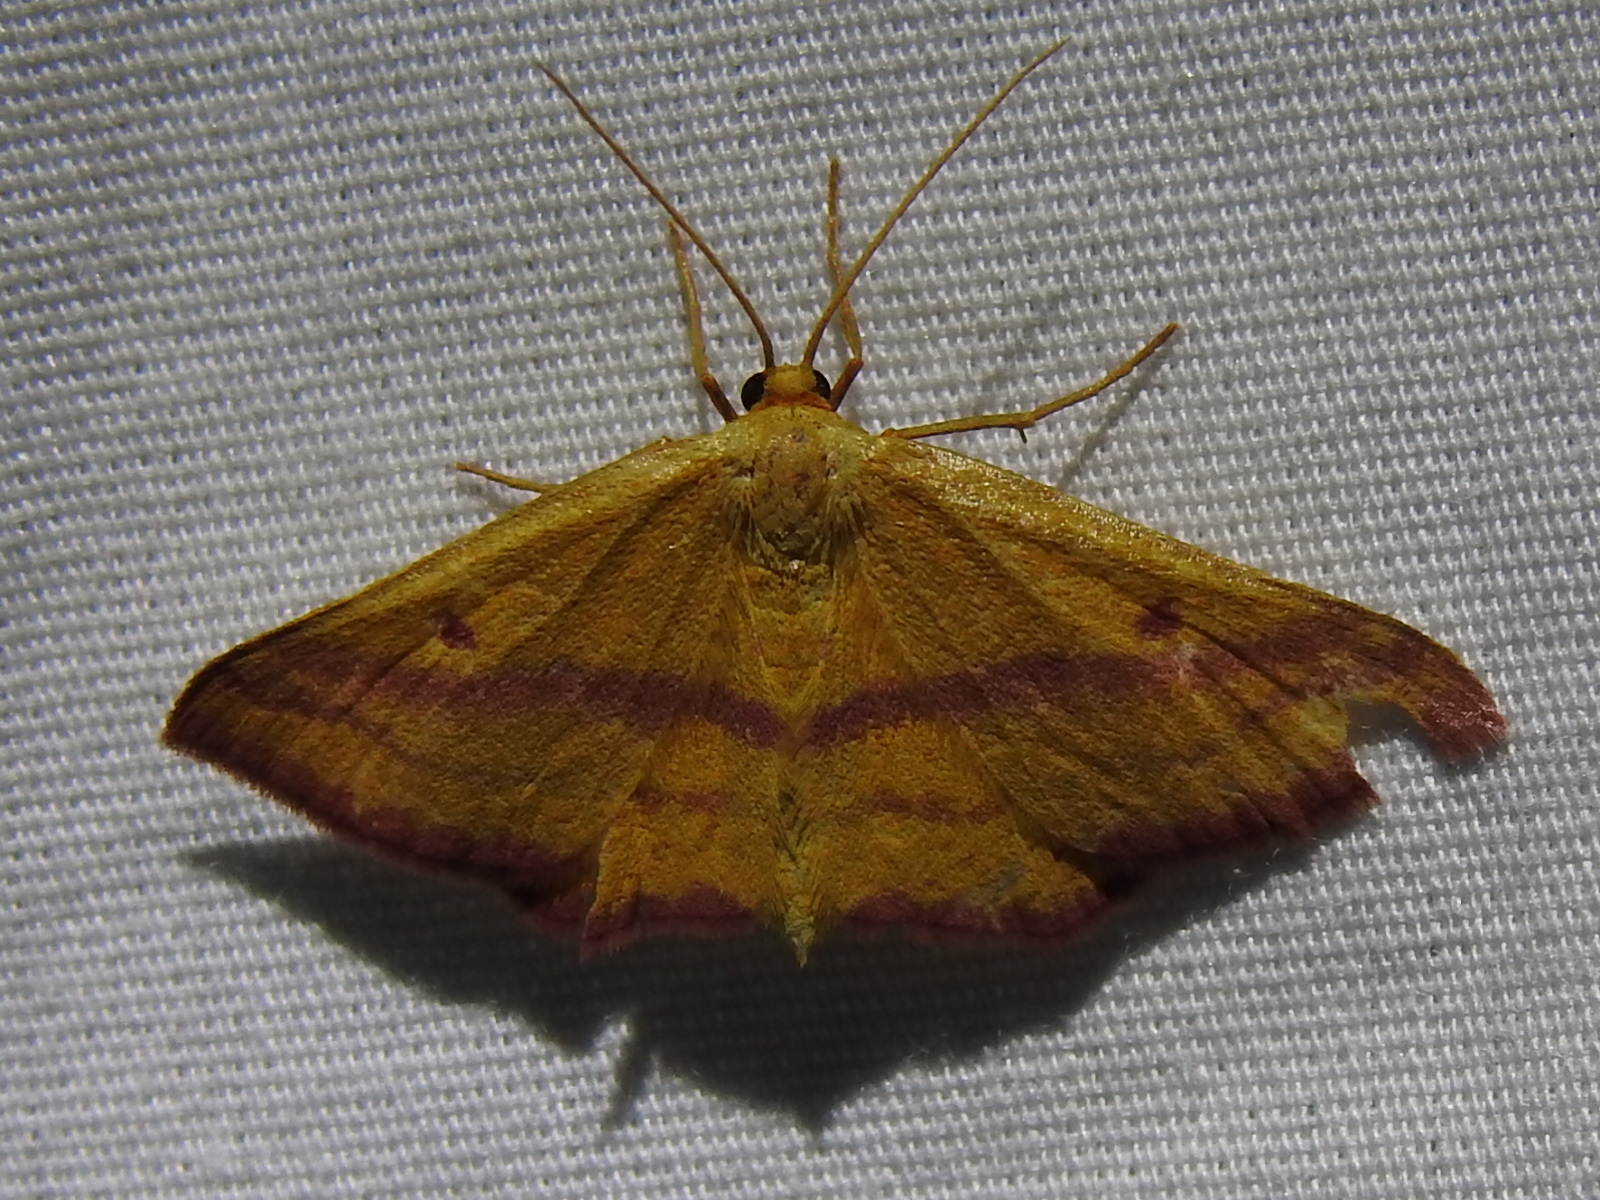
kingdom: Animalia
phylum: Arthropoda
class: Insecta
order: Lepidoptera
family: Geometridae
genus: Haematopis
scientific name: Haematopis grataria
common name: Chickweed geometer
